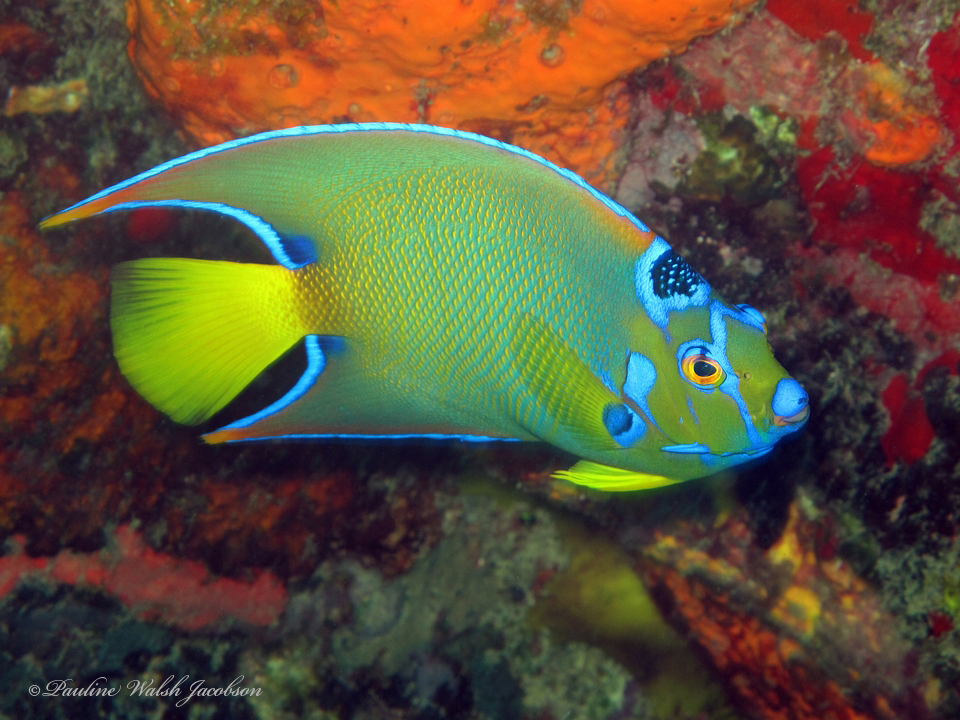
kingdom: Animalia
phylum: Chordata
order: Perciformes
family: Pomacanthidae
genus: Holacanthus
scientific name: Holacanthus ciliaris
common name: Queen angelfish
